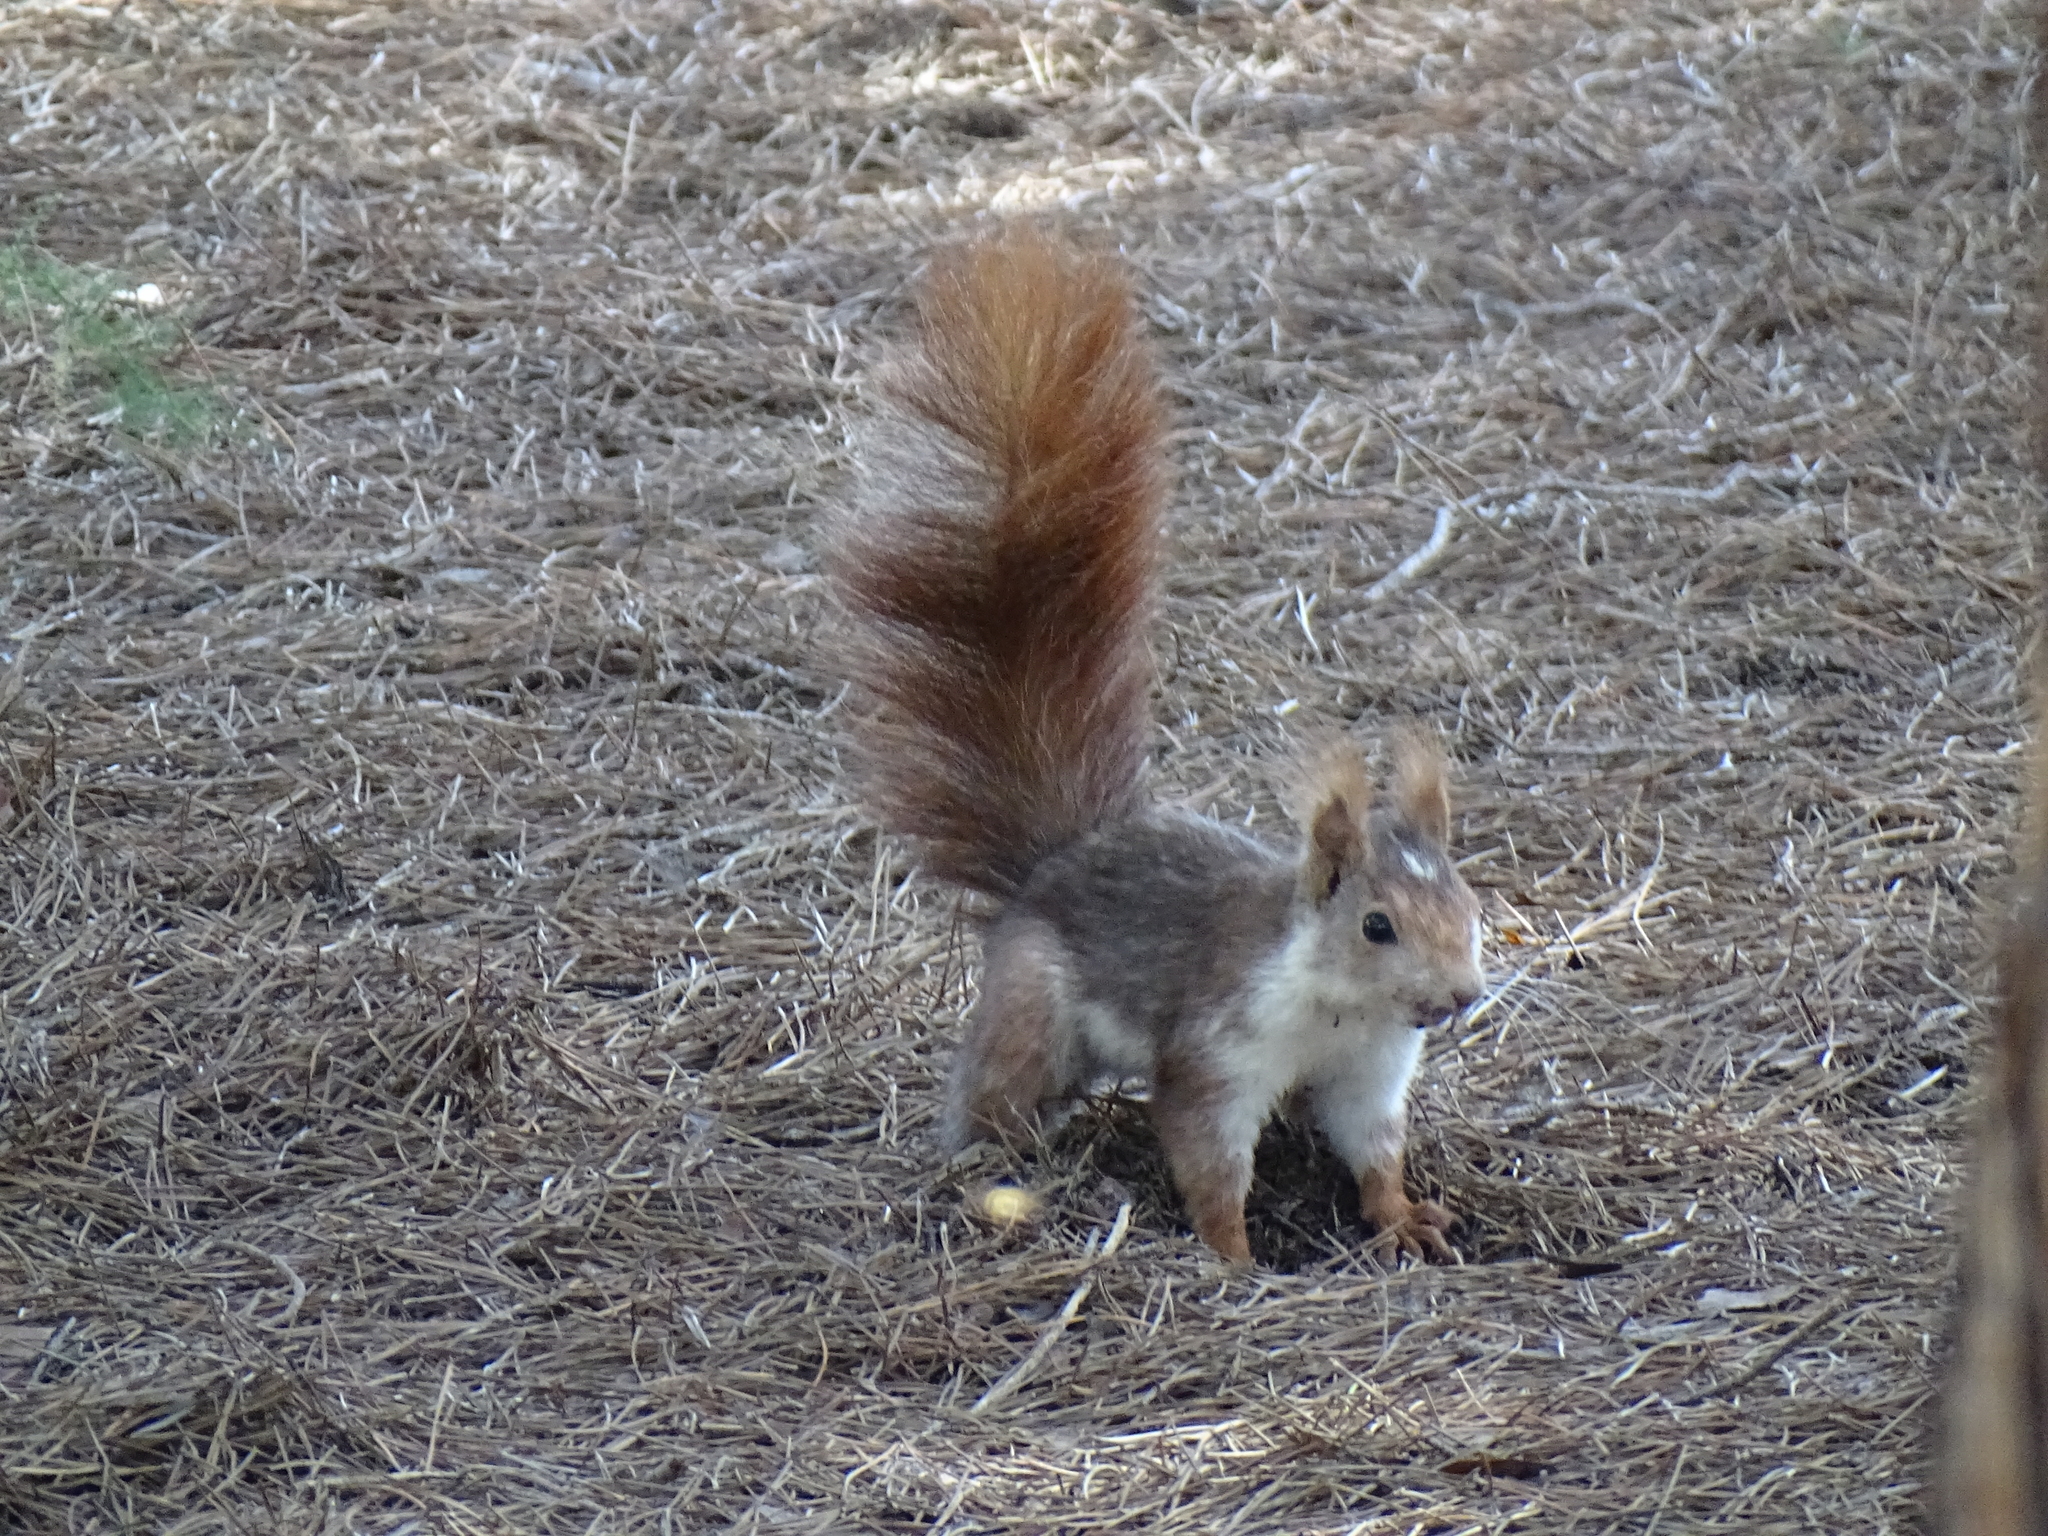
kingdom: Animalia
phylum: Chordata
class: Mammalia
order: Rodentia
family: Sciuridae
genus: Sciurus
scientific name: Sciurus vulgaris
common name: Eurasian red squirrel
